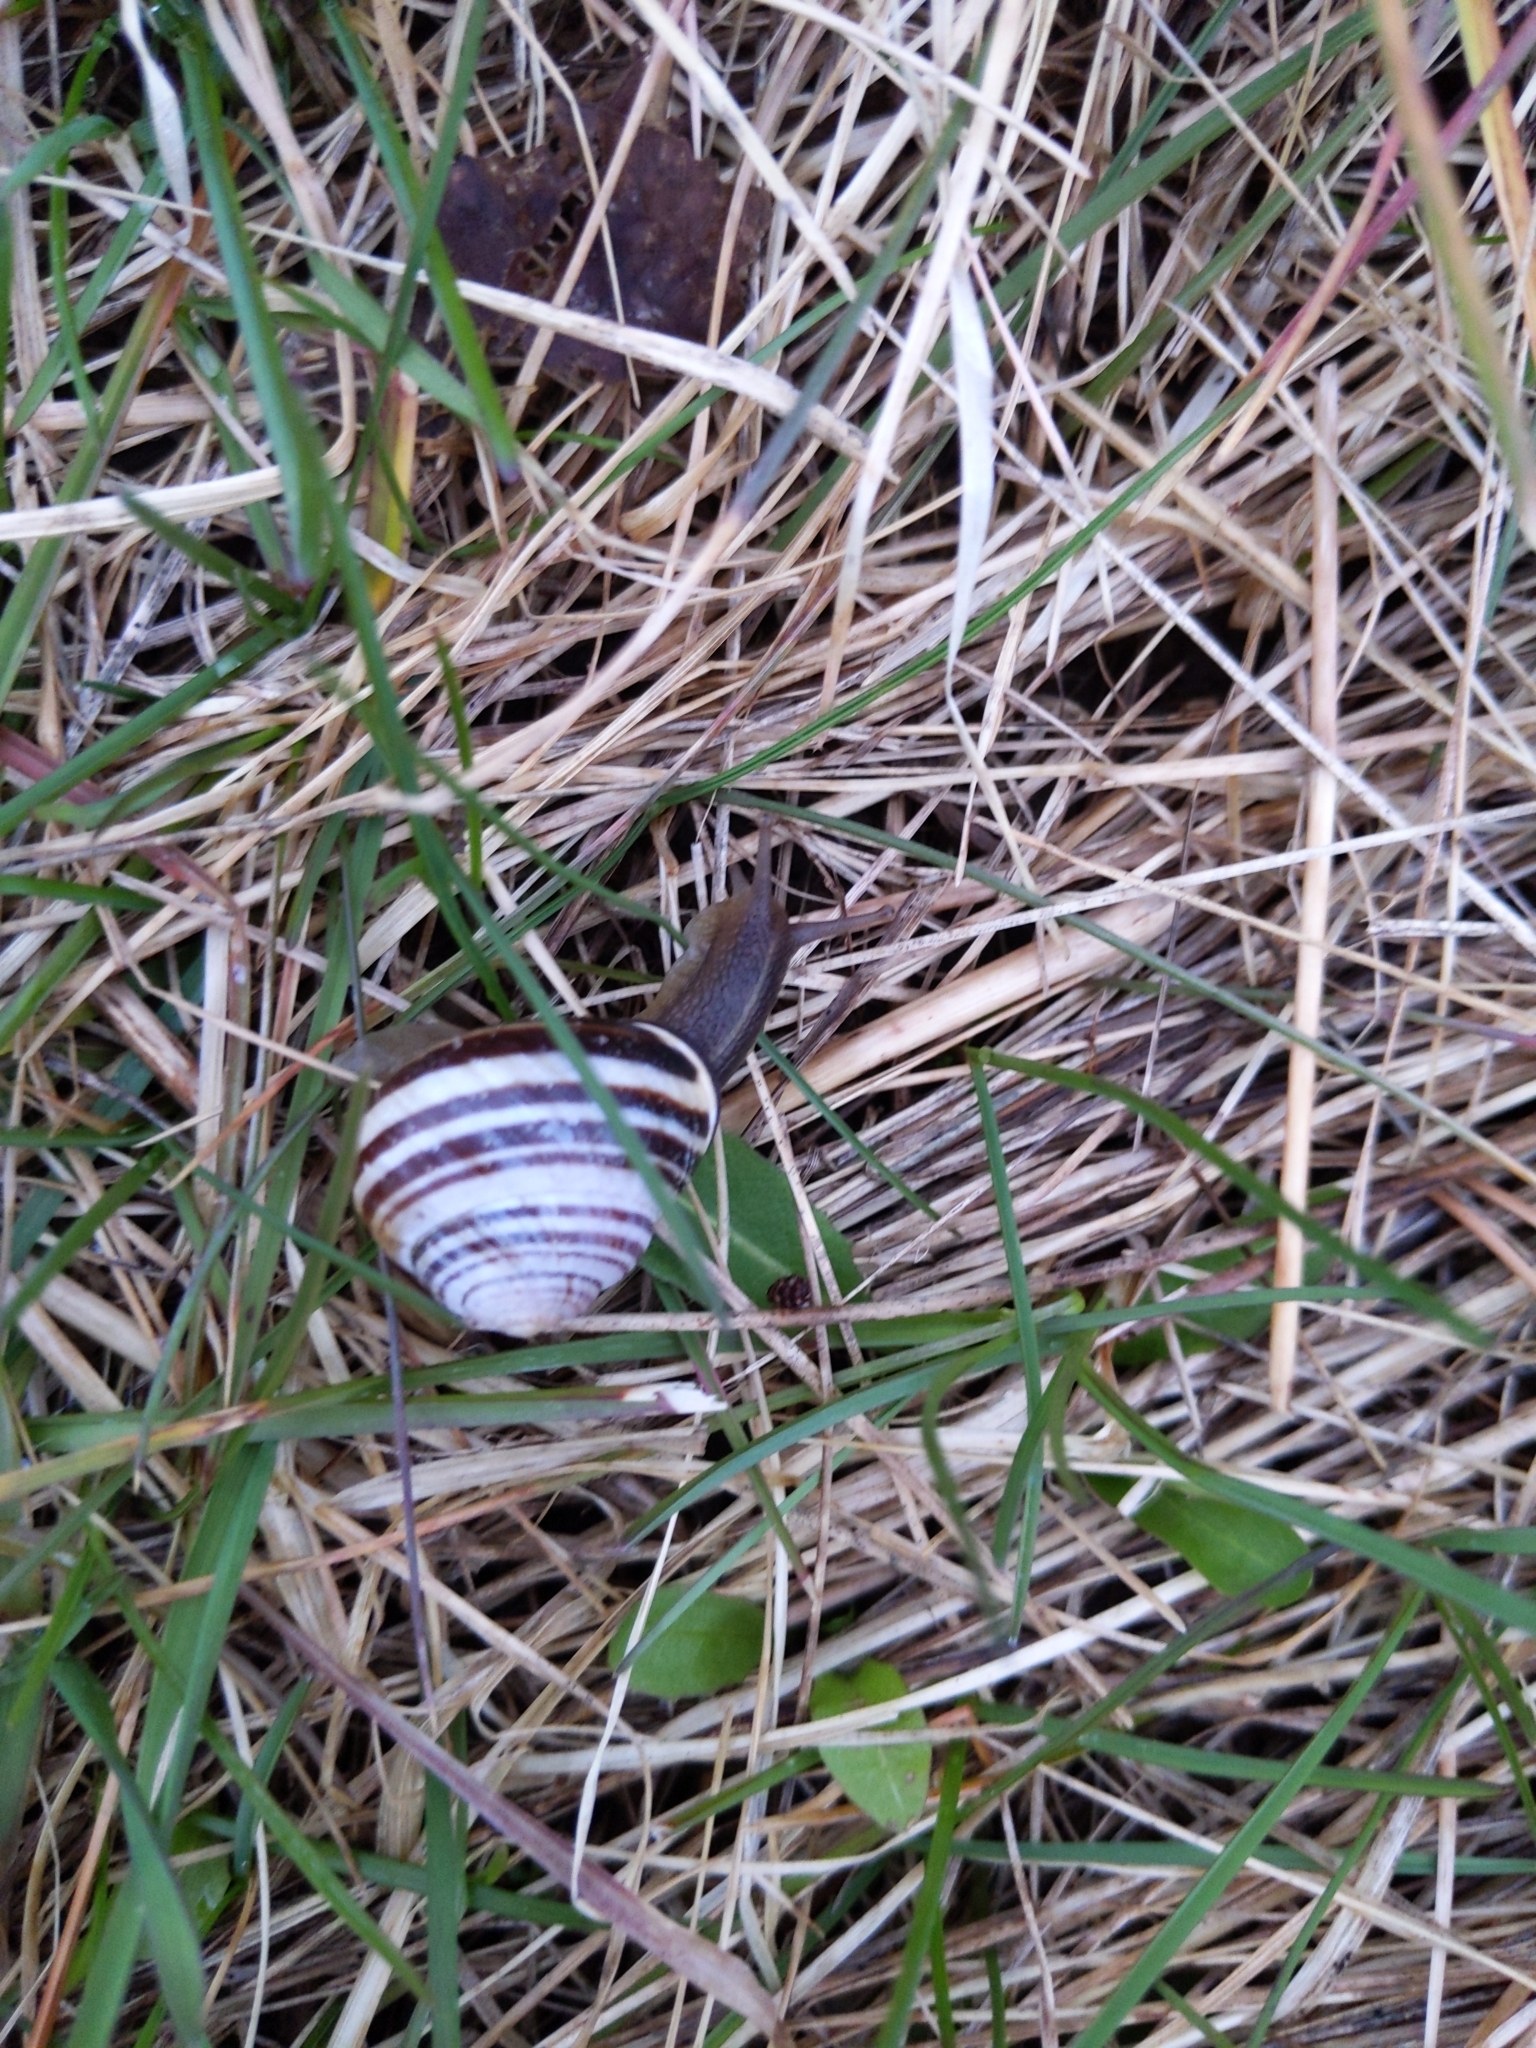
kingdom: Animalia
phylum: Mollusca
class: Gastropoda
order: Stylommatophora
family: Helicidae
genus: Cepaea
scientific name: Cepaea nemoralis
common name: Grovesnail
